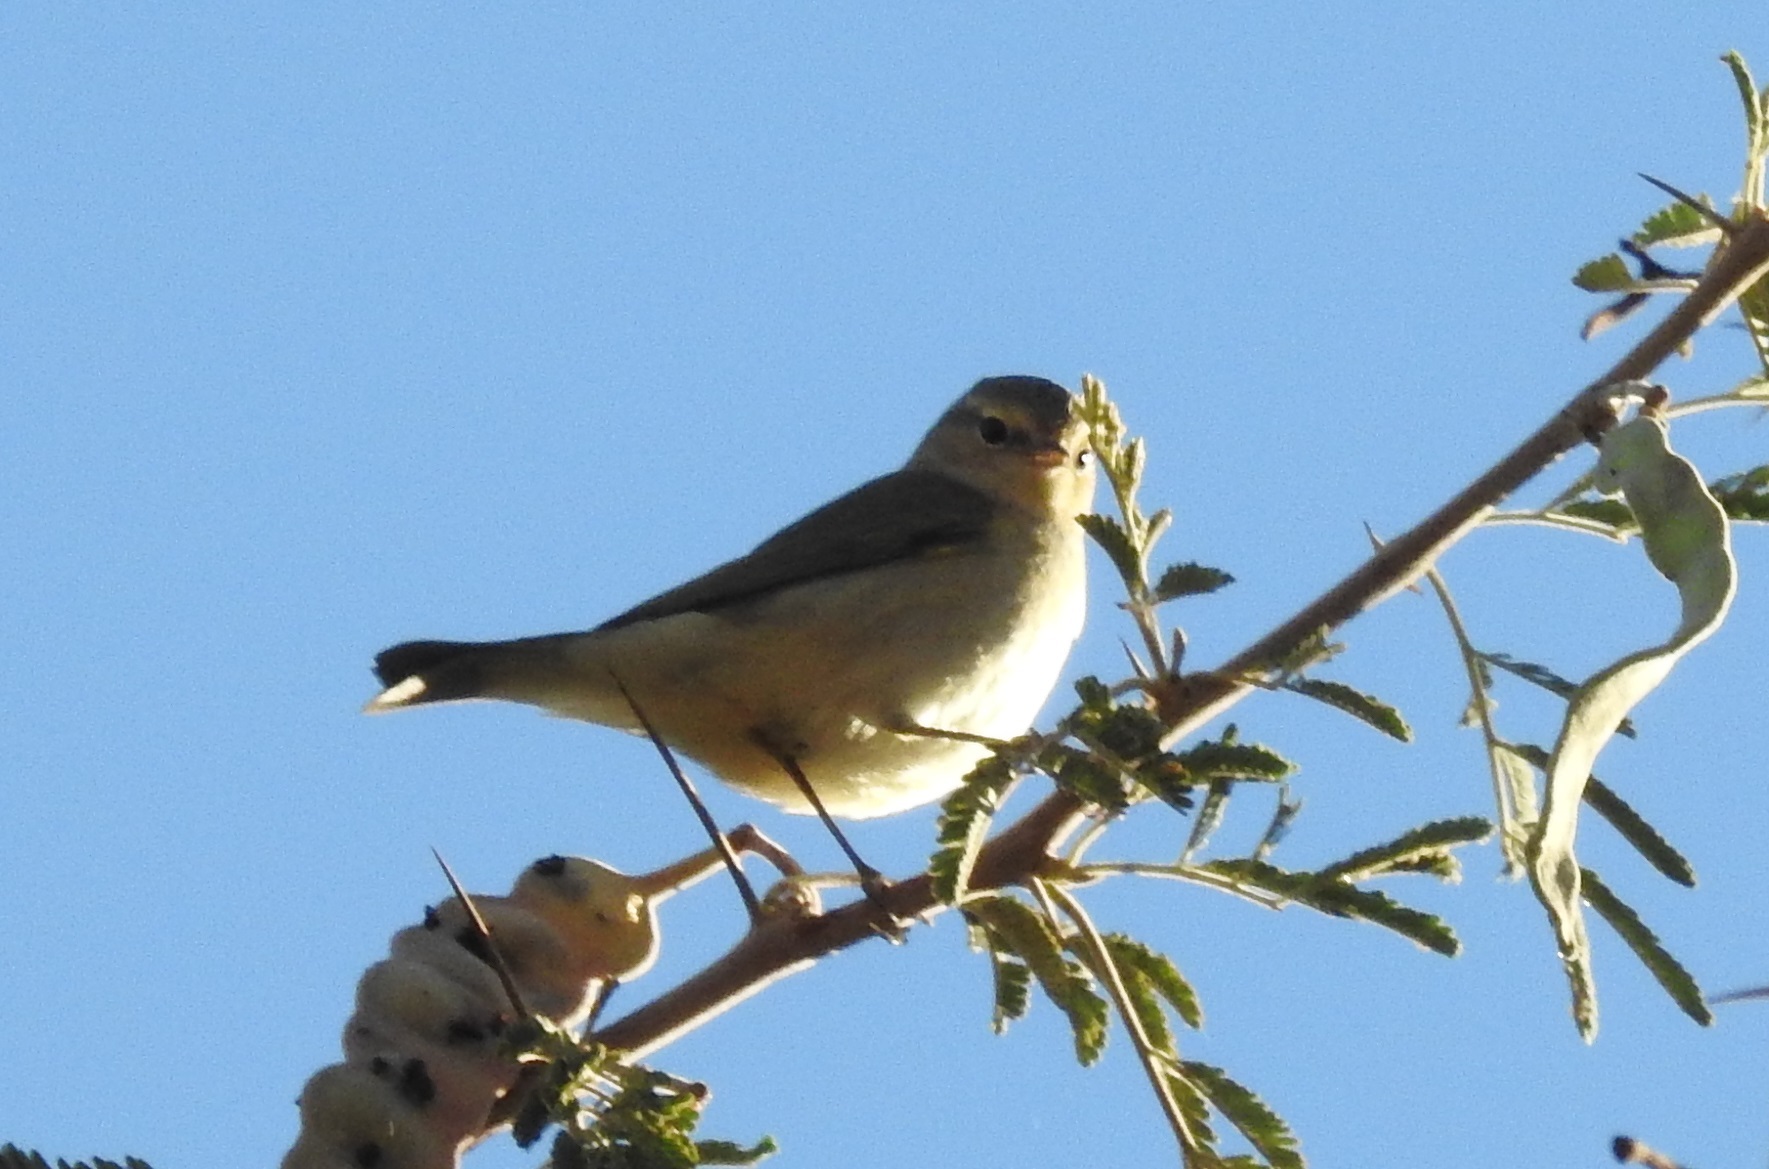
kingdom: Animalia
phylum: Chordata
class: Aves
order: Passeriformes
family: Phylloscopidae
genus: Phylloscopus
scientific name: Phylloscopus collybita
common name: Common chiffchaff
